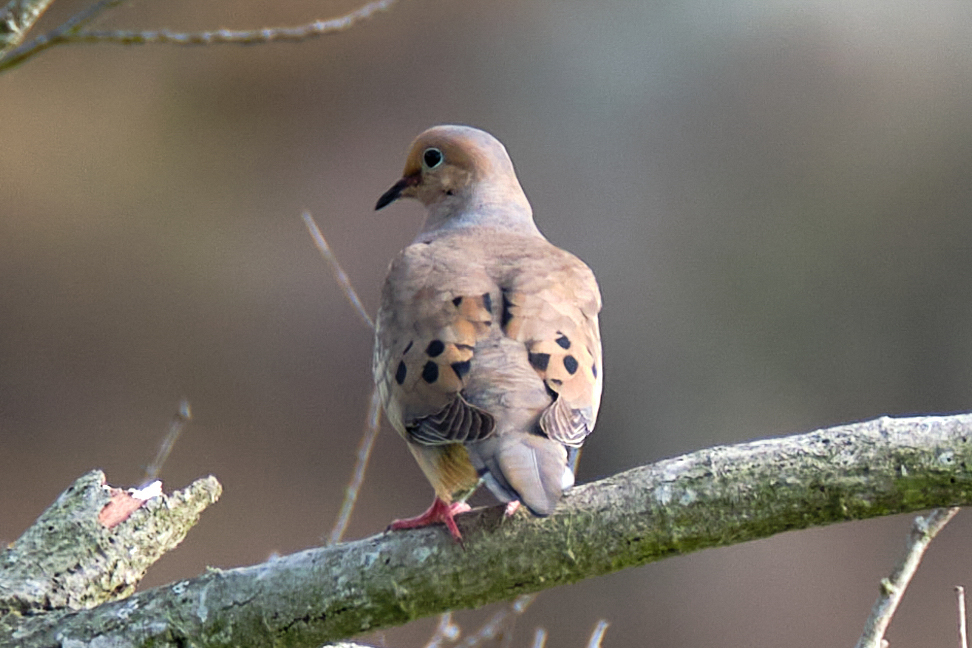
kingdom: Animalia
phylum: Chordata
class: Aves
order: Columbiformes
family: Columbidae
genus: Zenaida
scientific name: Zenaida macroura
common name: Mourning dove
